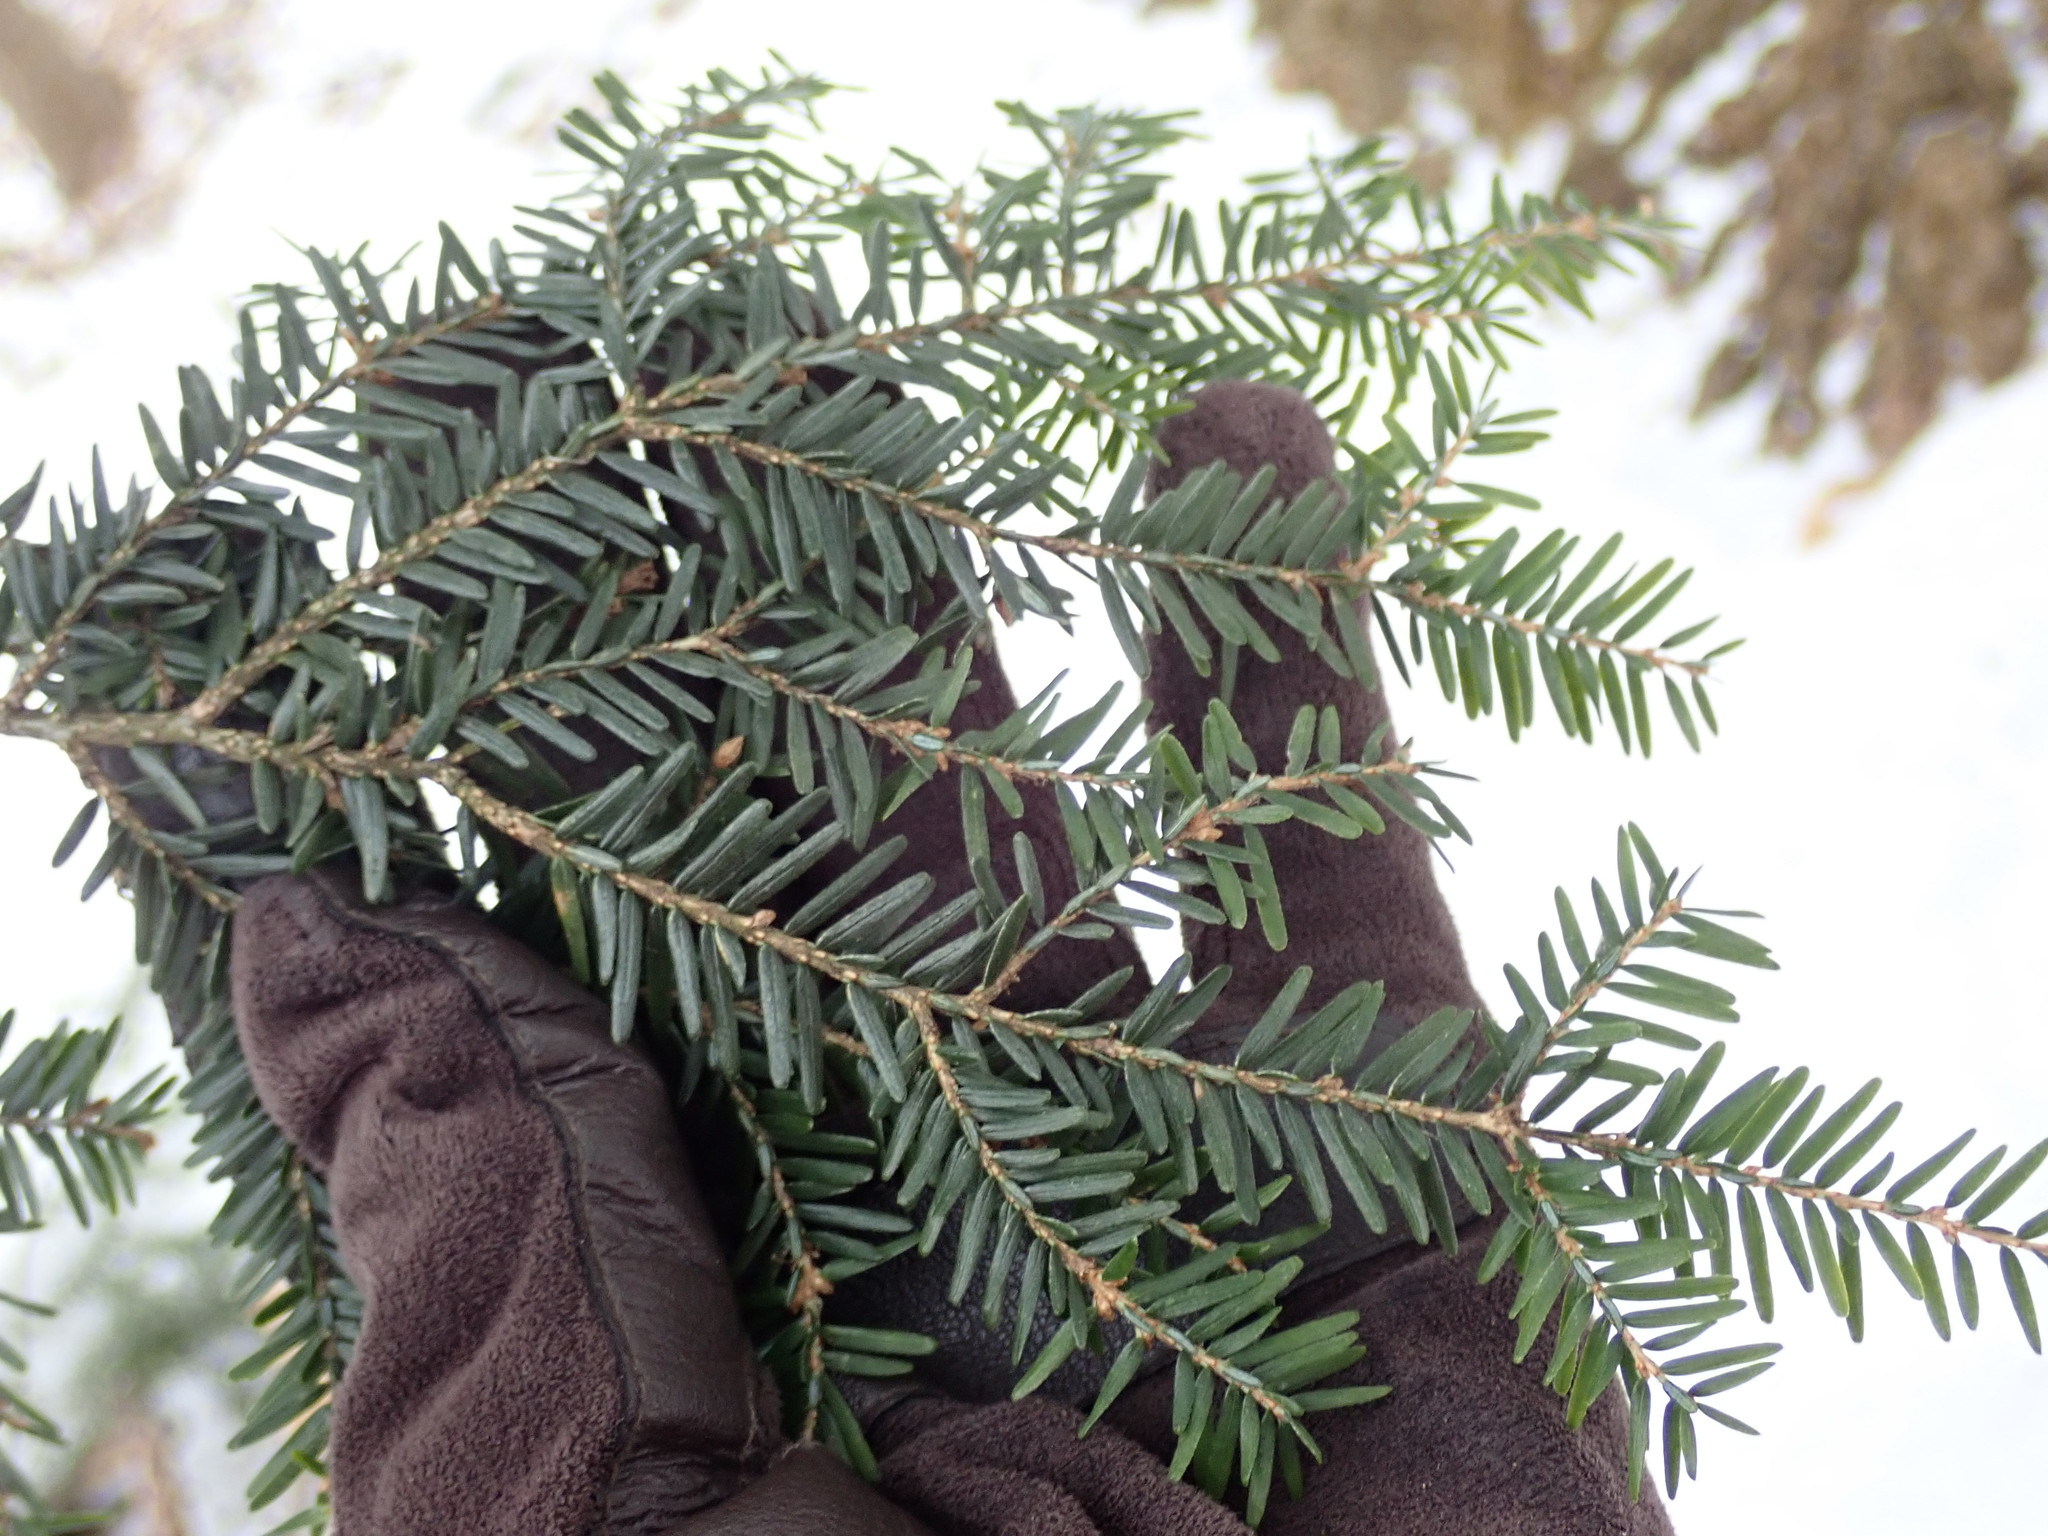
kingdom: Plantae
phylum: Tracheophyta
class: Pinopsida
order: Pinales
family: Pinaceae
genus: Tsuga
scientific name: Tsuga canadensis
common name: Eastern hemlock
